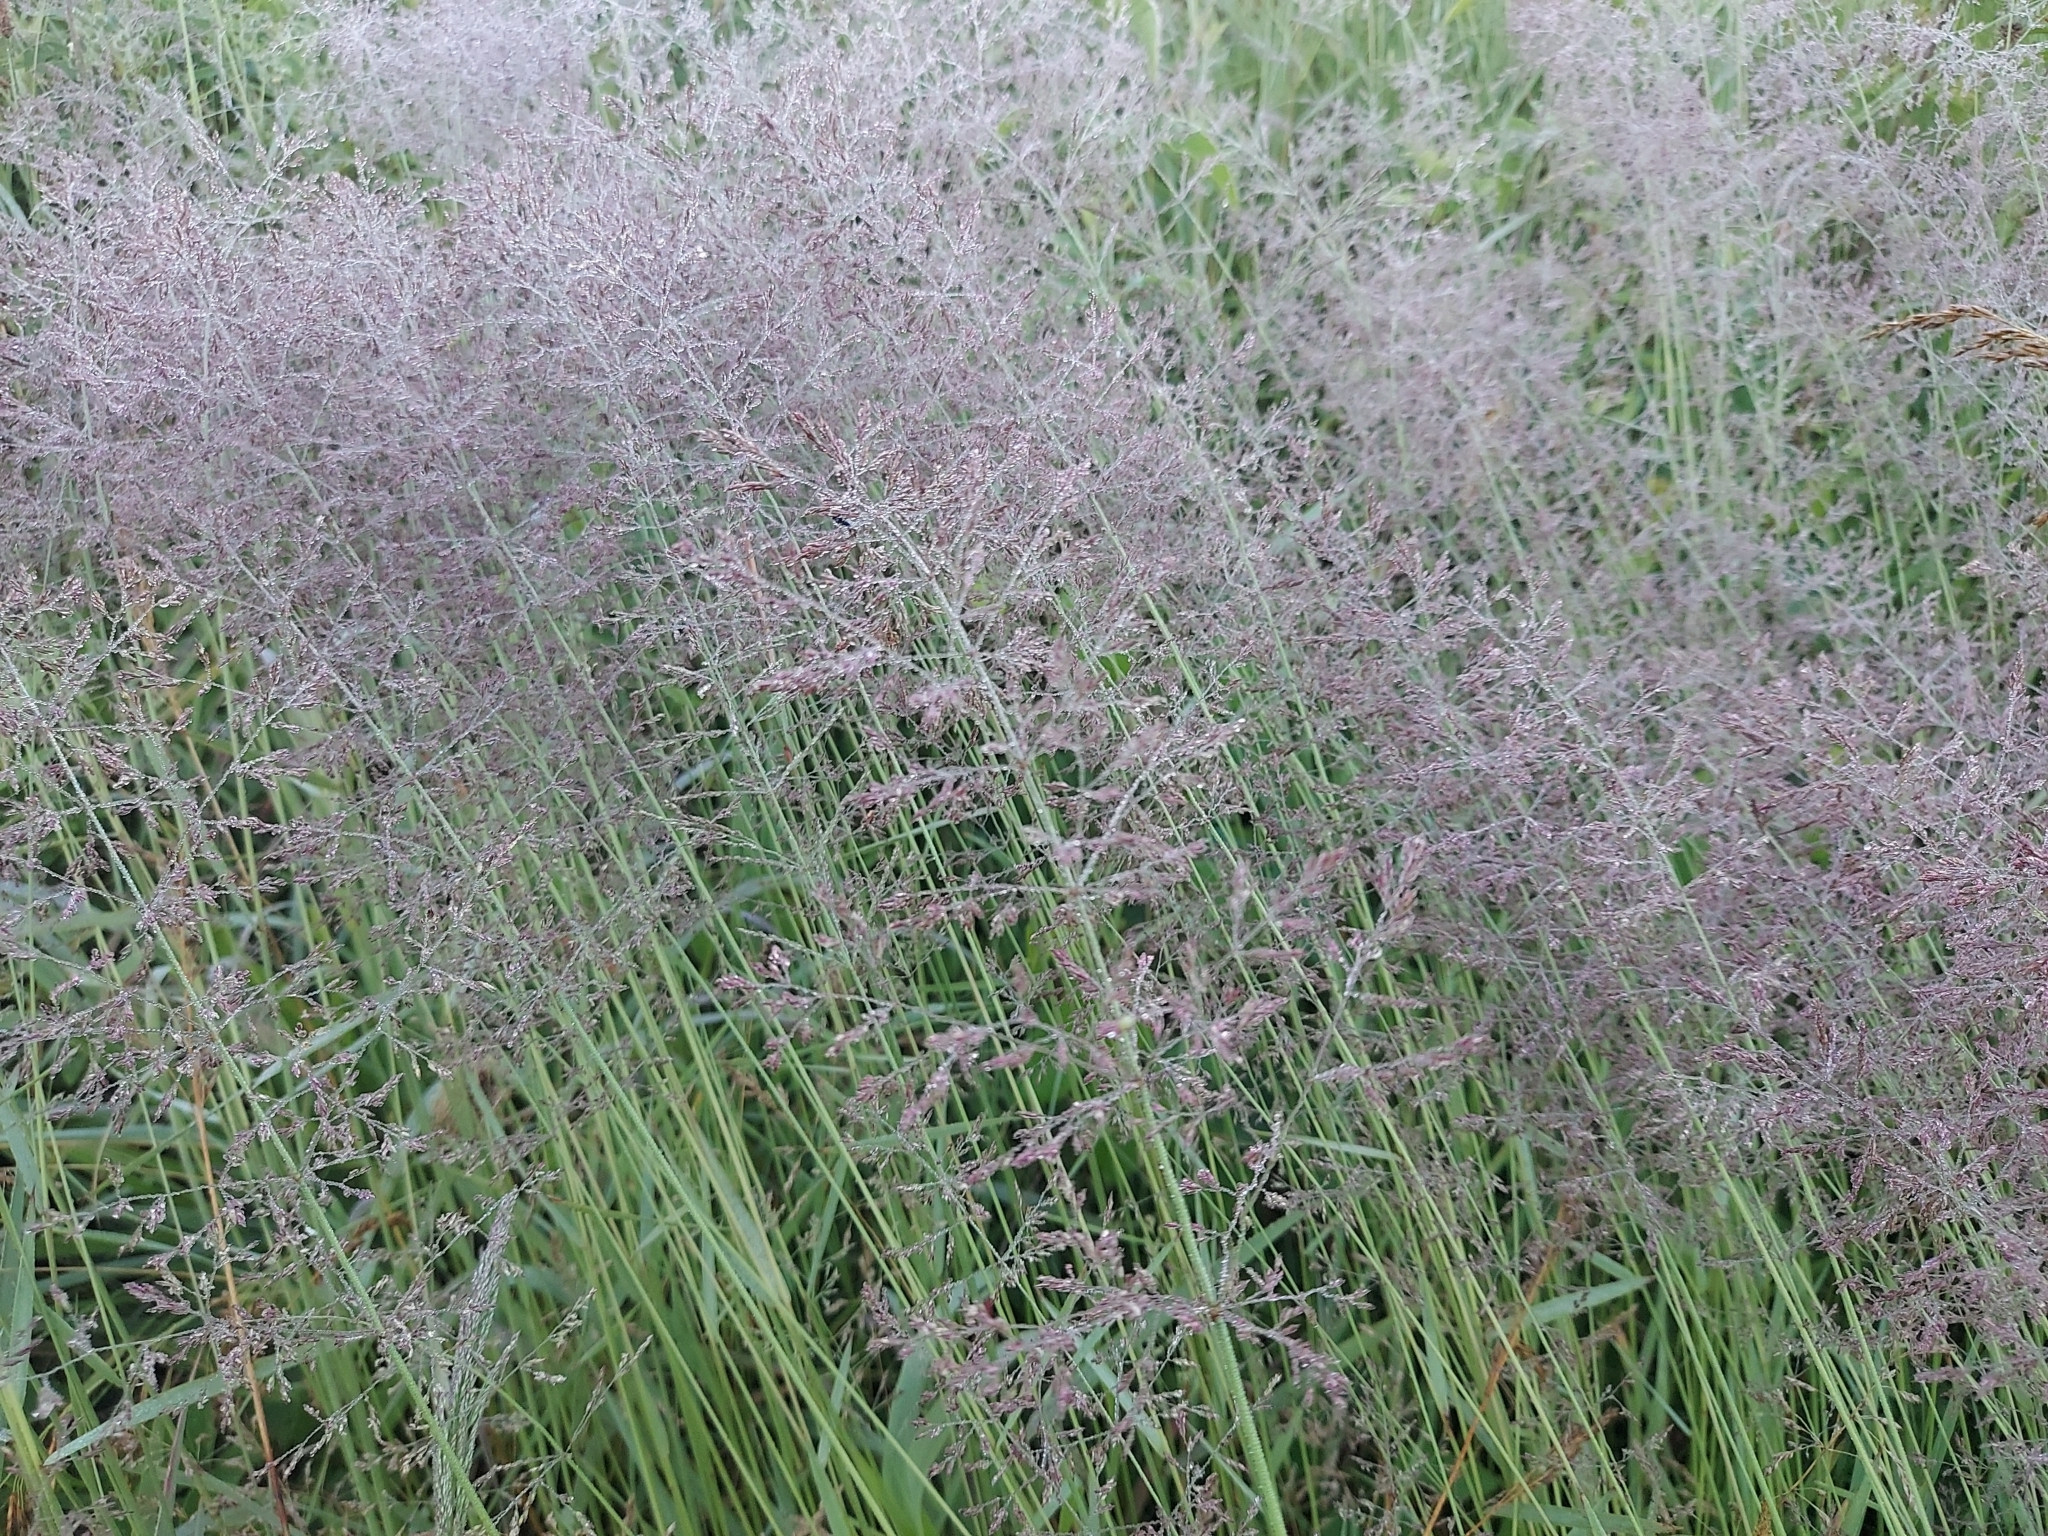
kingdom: Plantae
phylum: Tracheophyta
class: Liliopsida
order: Poales
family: Poaceae
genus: Agrostis
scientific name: Agrostis gigantea
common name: Black bent
